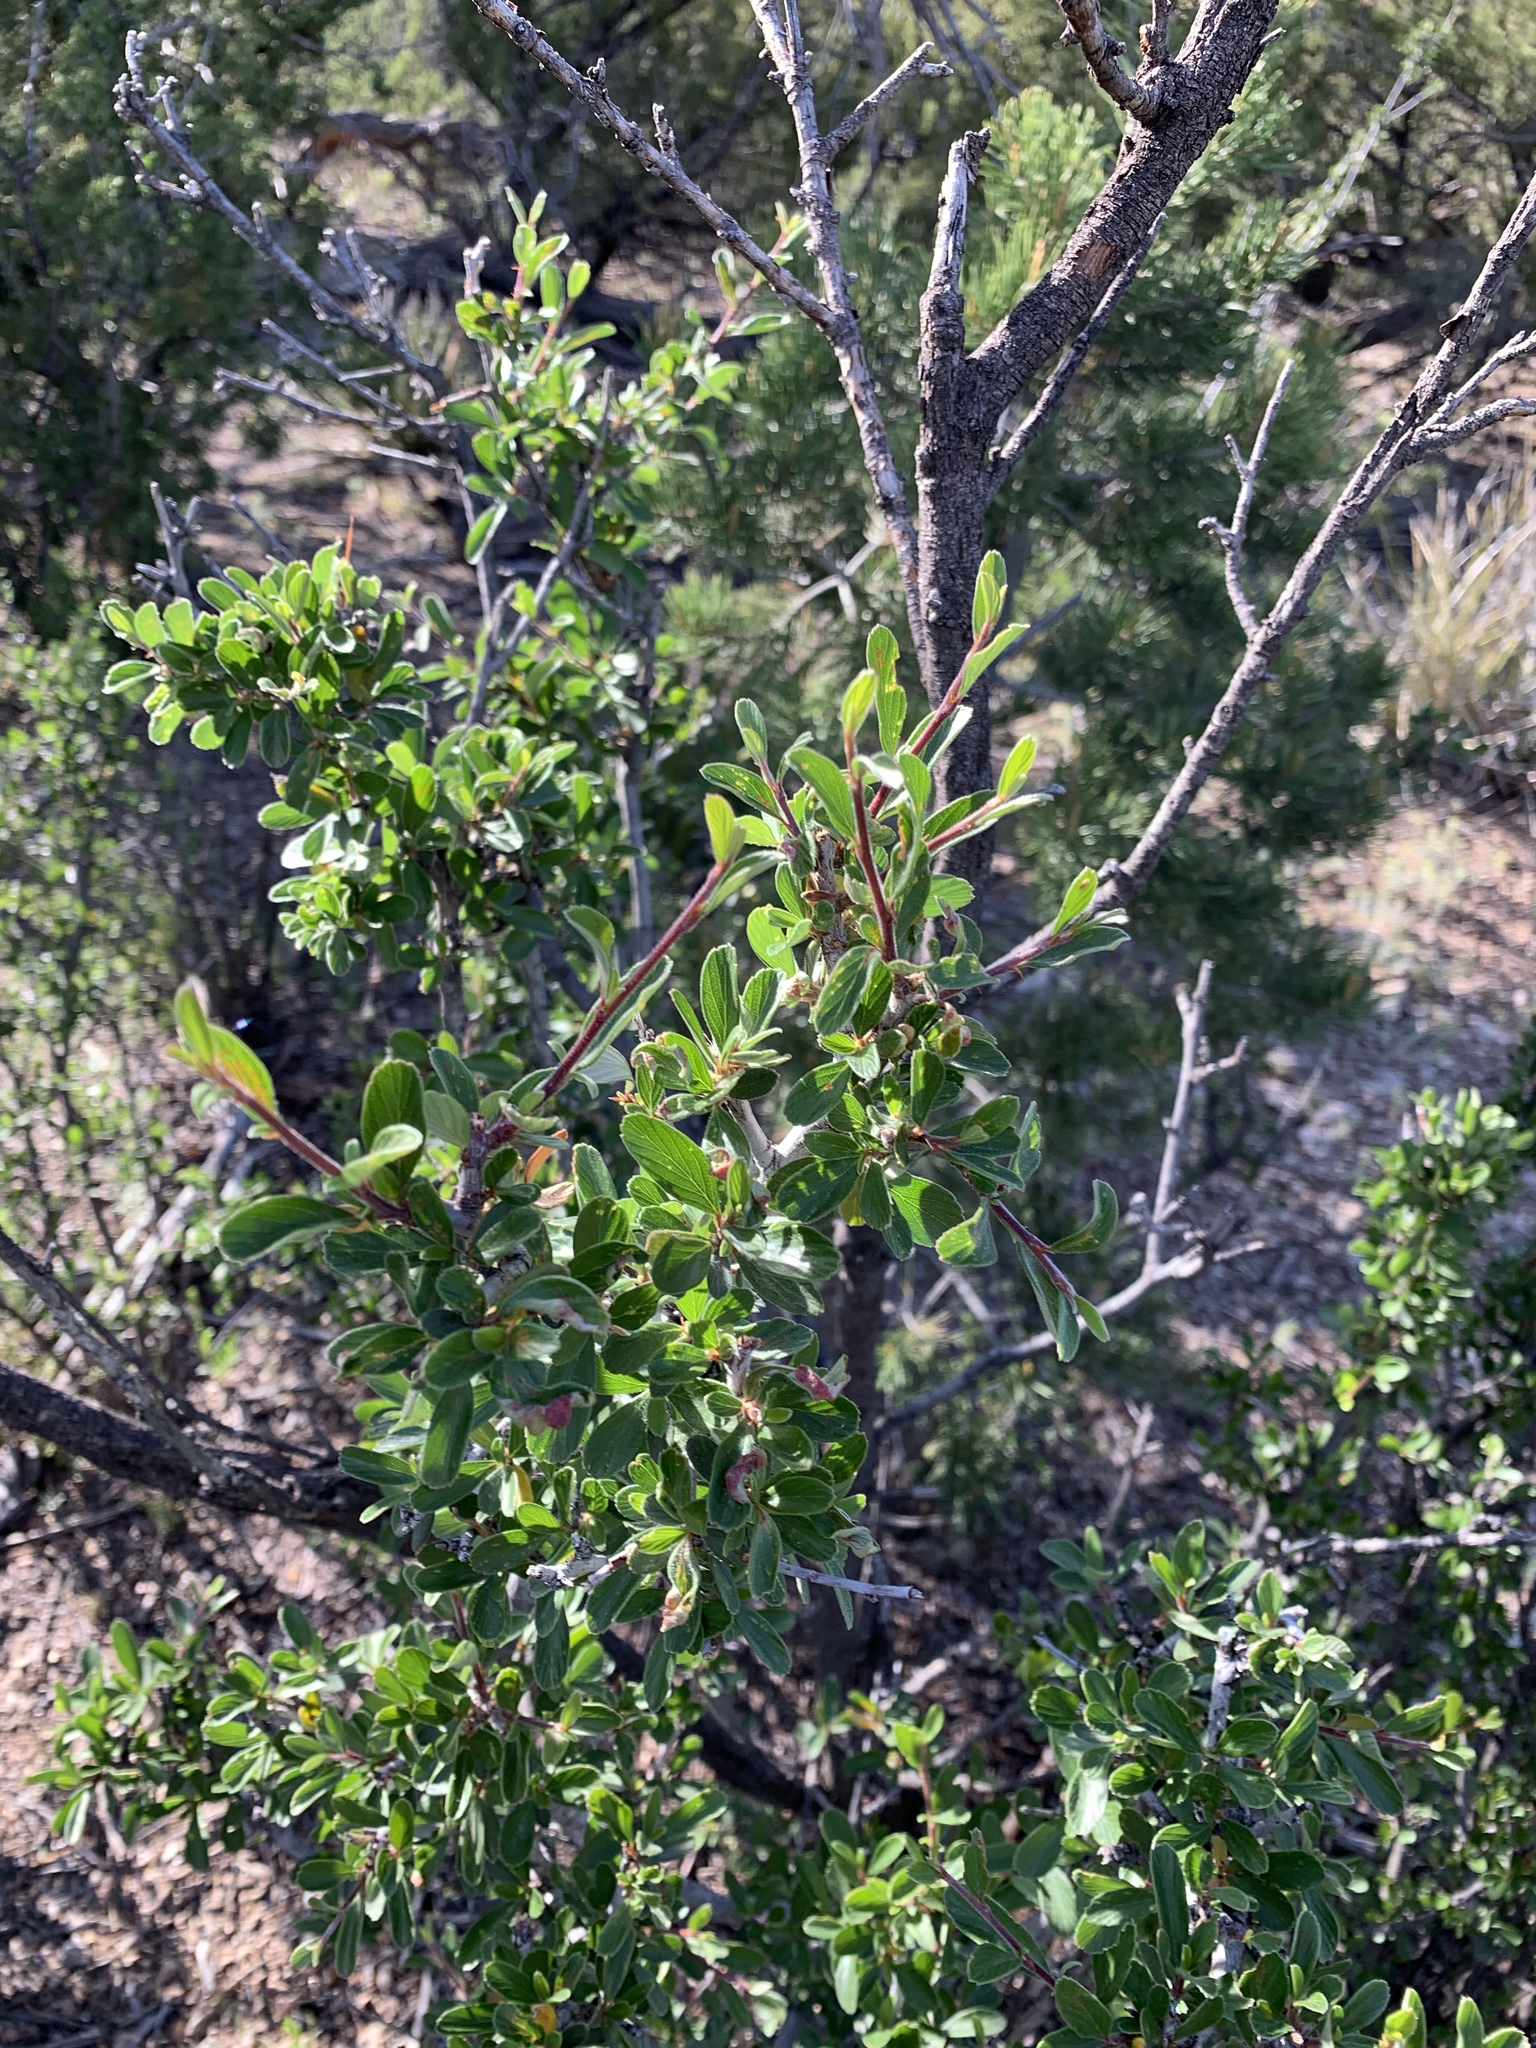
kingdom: Plantae
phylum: Tracheophyta
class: Magnoliopsida
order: Rosales
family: Rosaceae
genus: Cercocarpus
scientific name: Cercocarpus breviflorus
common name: Wright's mountain-mahogany
